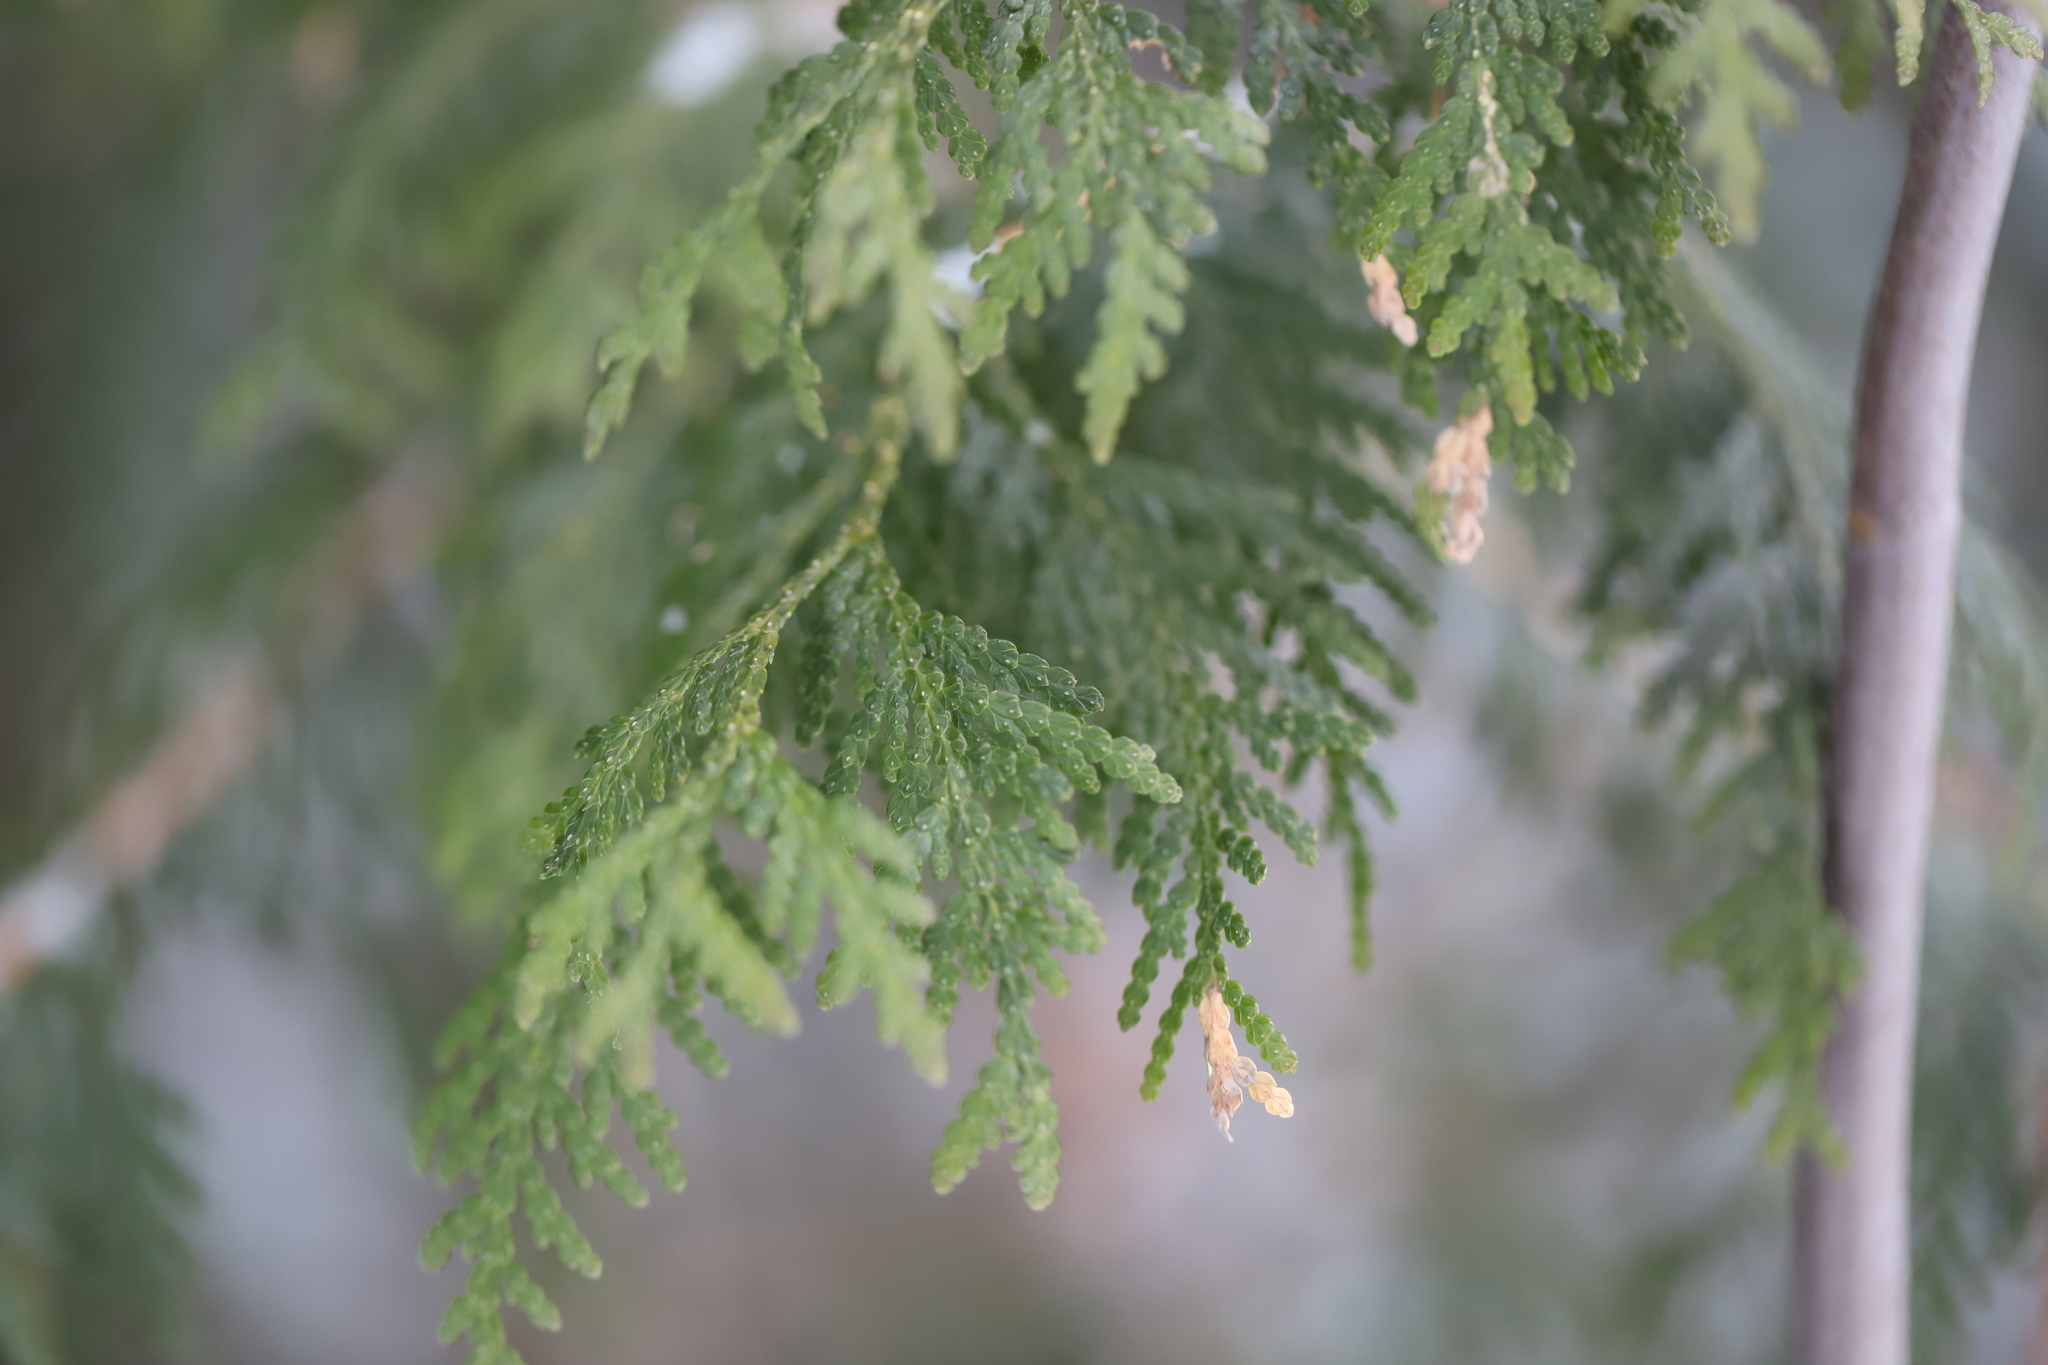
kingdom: Plantae
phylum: Tracheophyta
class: Pinopsida
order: Pinales
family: Cupressaceae
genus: Thuja
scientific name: Thuja occidentalis
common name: Northern white-cedar
